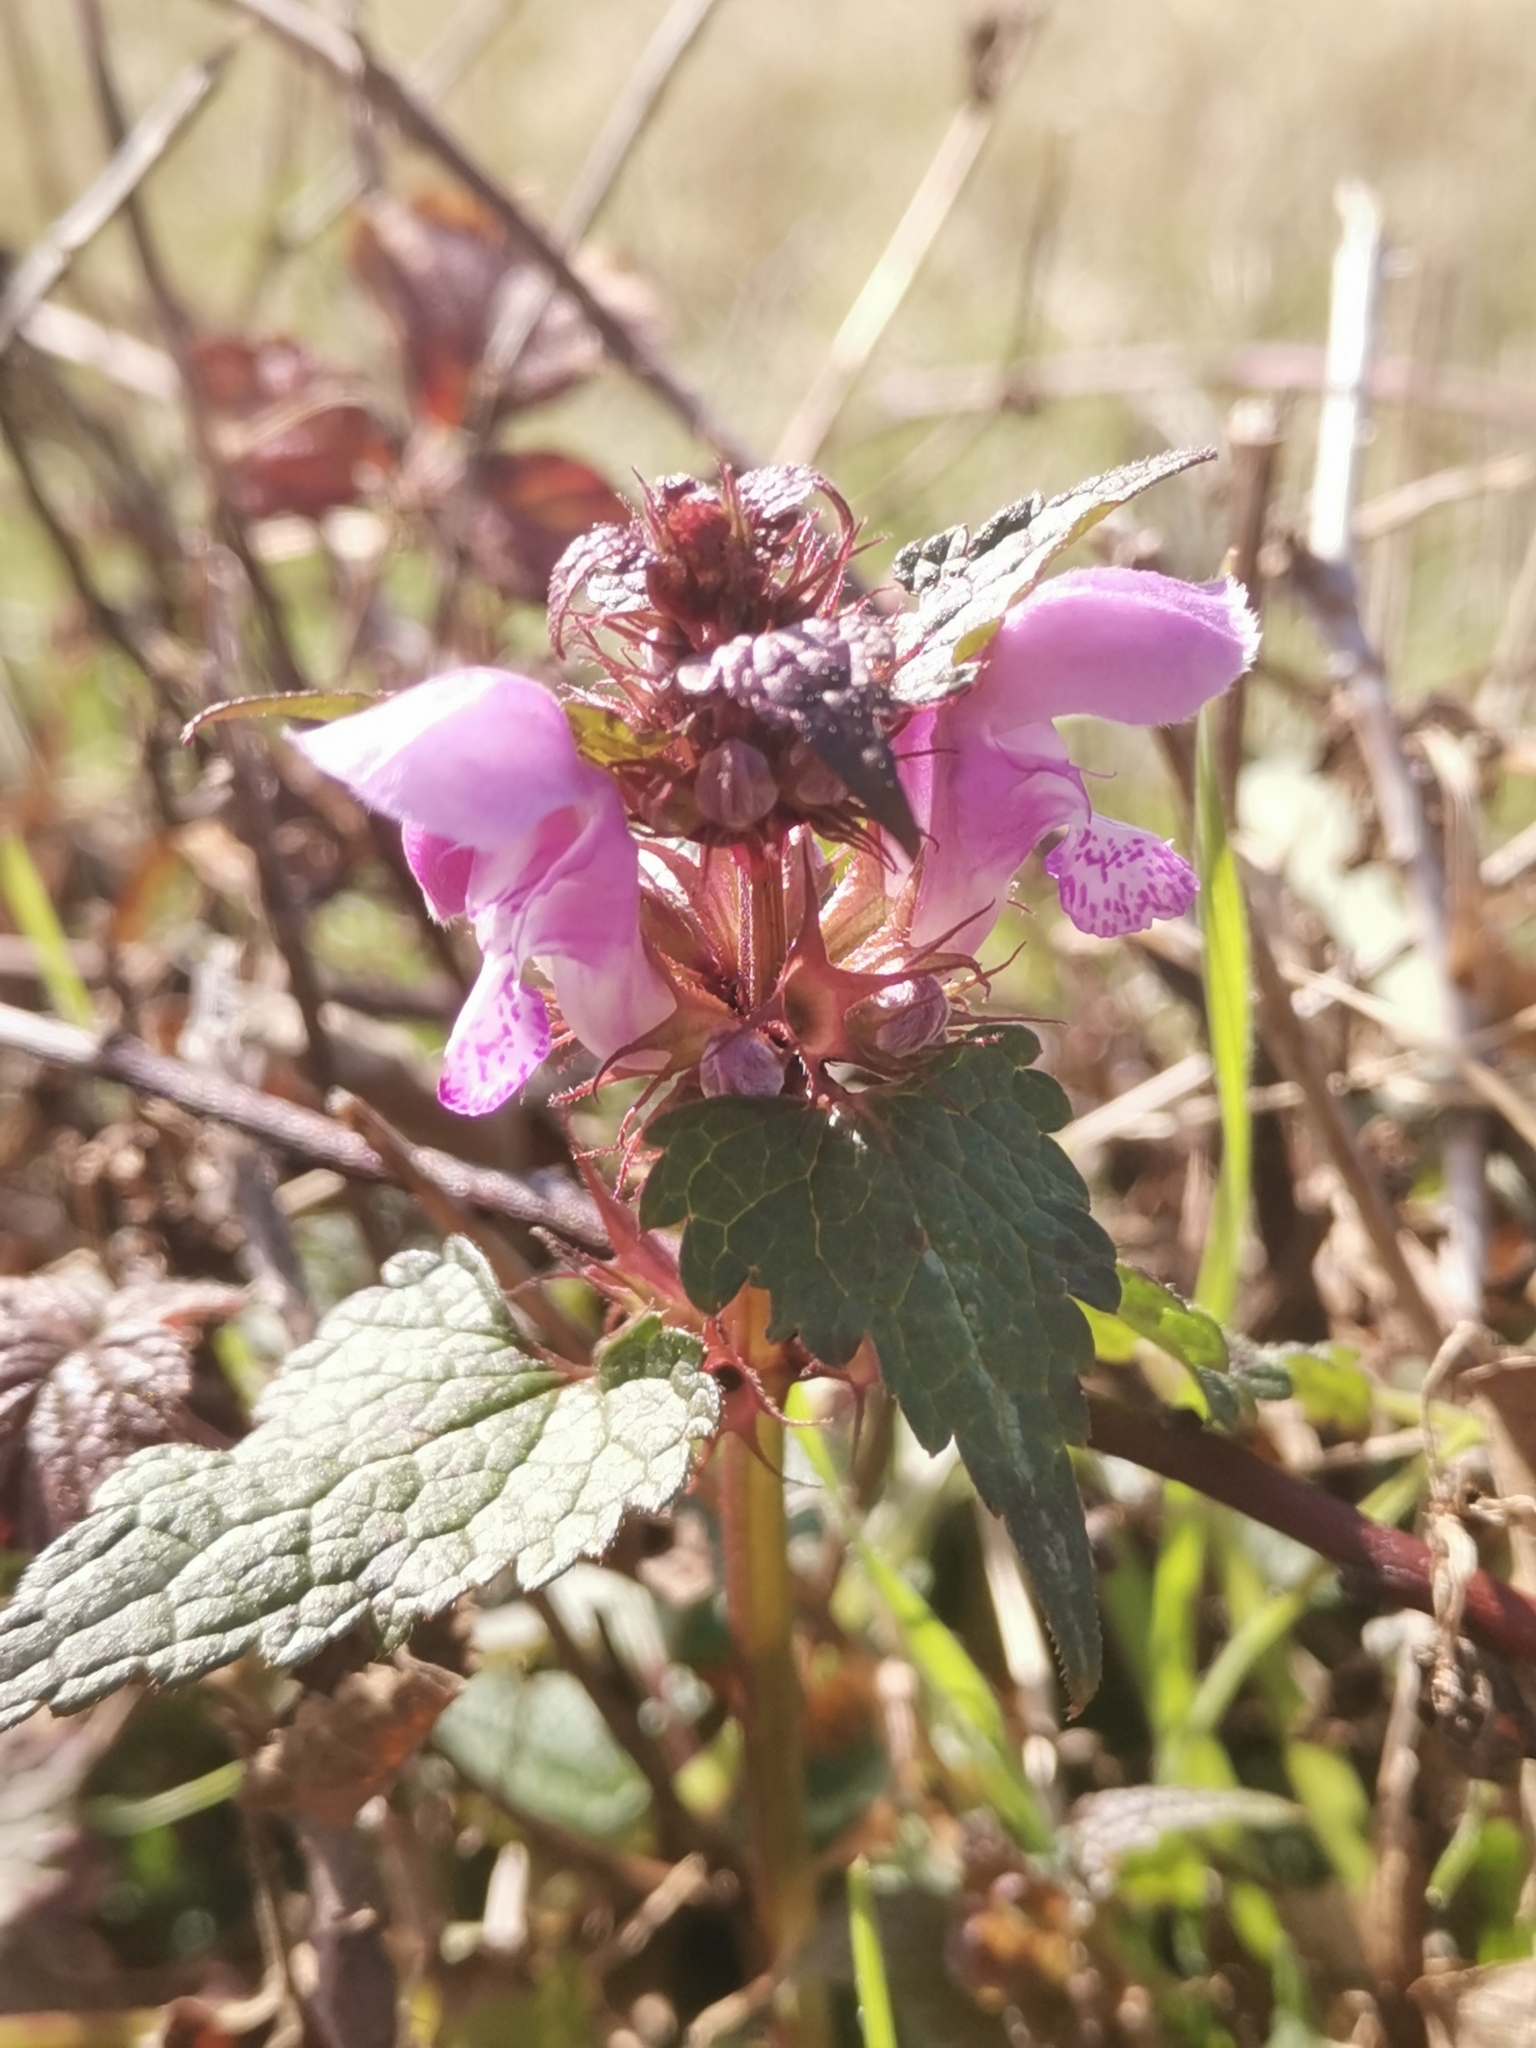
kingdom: Plantae
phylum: Tracheophyta
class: Magnoliopsida
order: Lamiales
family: Lamiaceae
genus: Lamium
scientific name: Lamium maculatum
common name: Spotted dead-nettle
